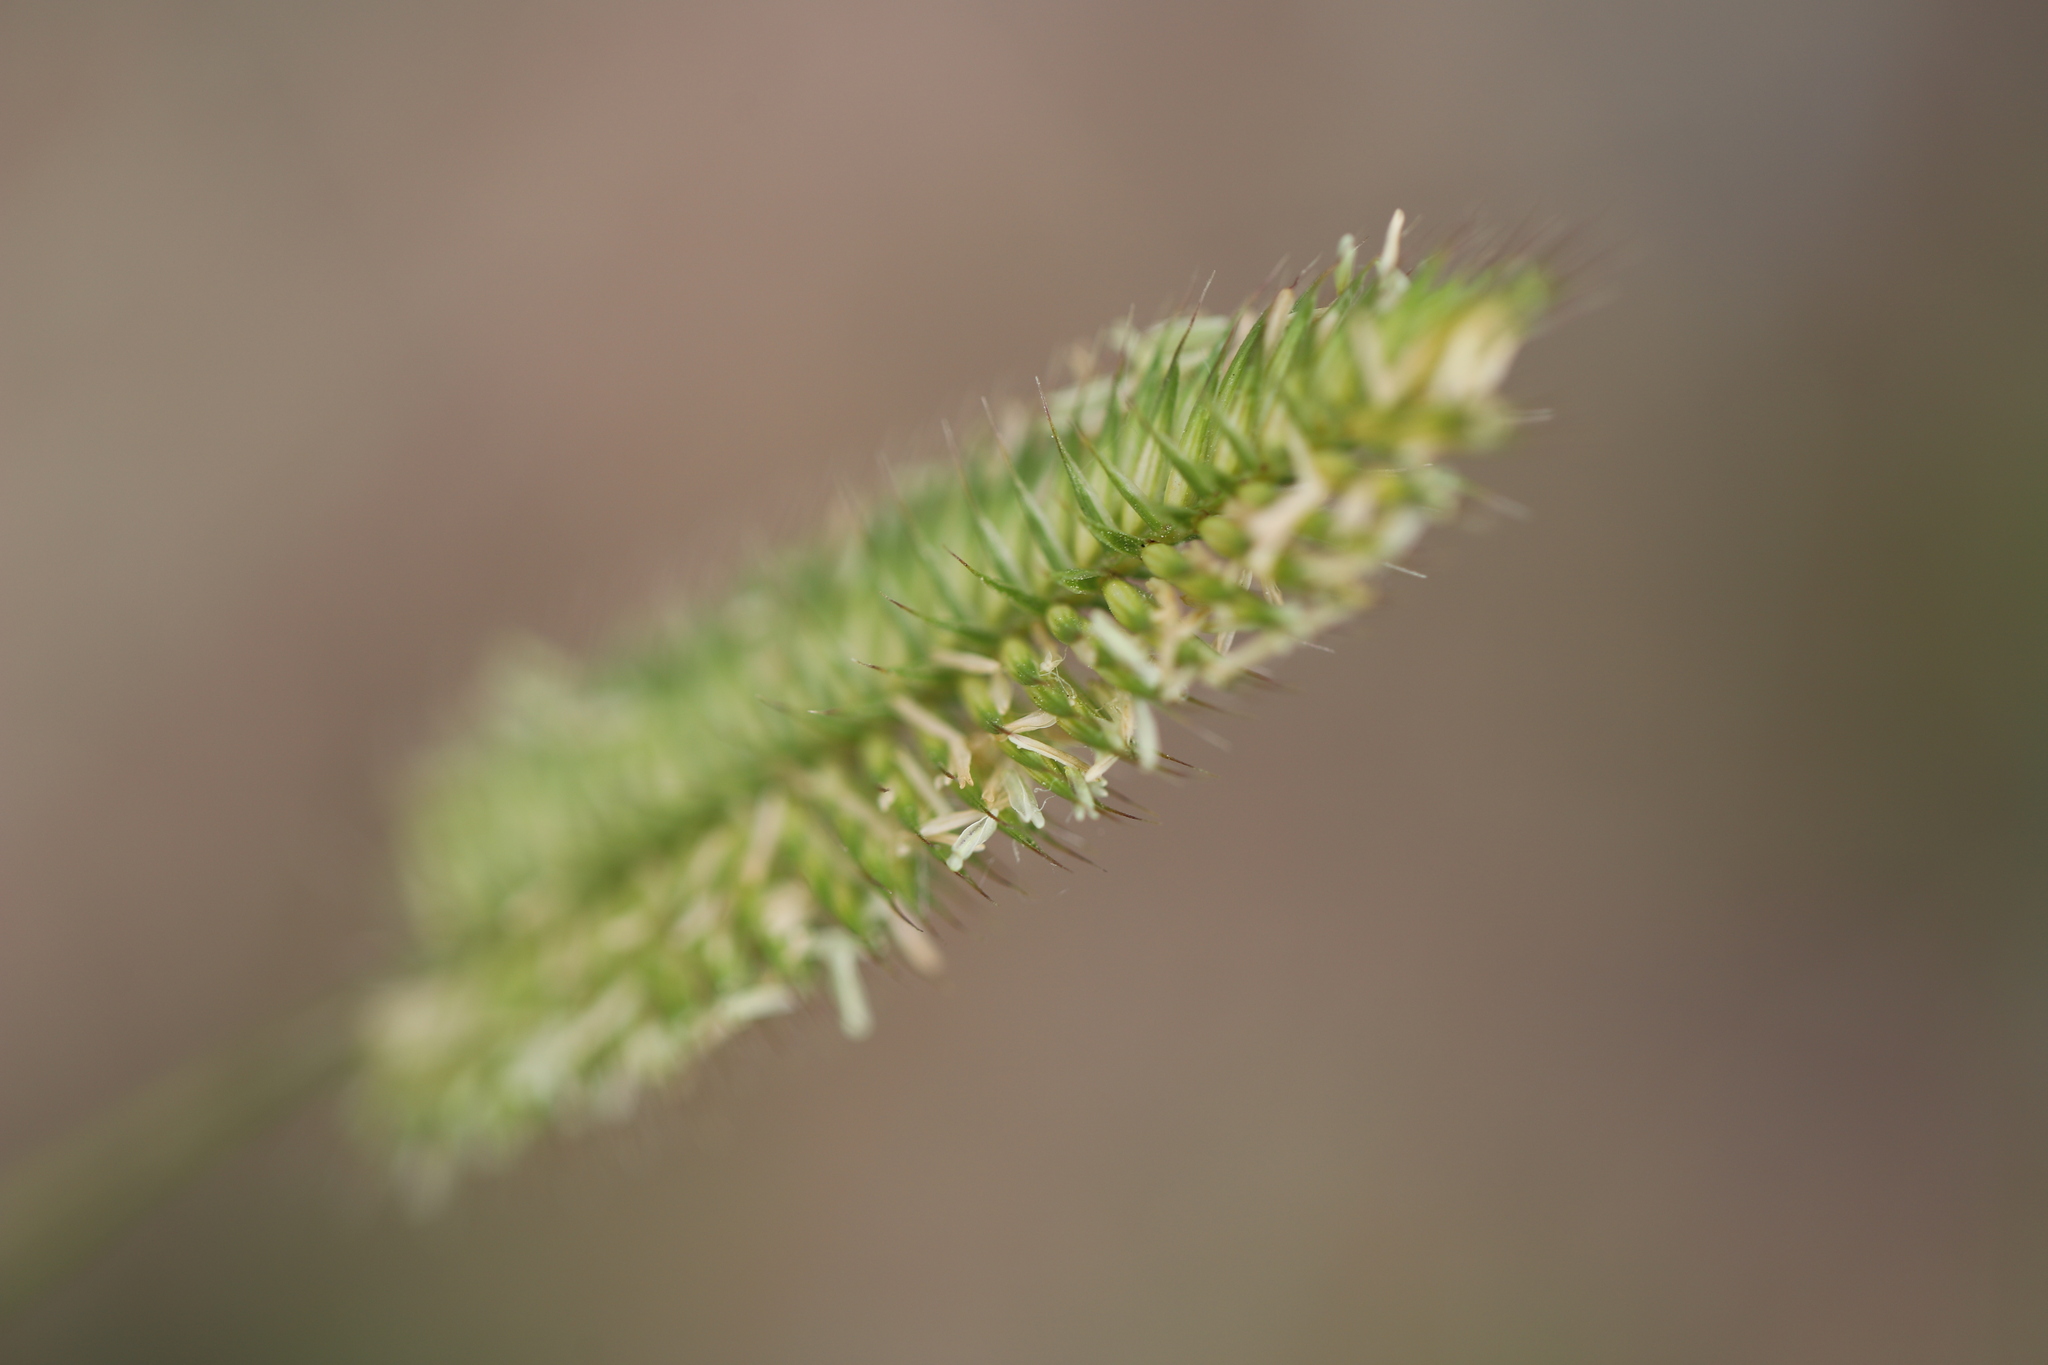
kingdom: Plantae
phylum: Tracheophyta
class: Liliopsida
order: Poales
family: Poaceae
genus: Agropyron
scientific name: Agropyron cristatum
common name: Crested wheatgrass
